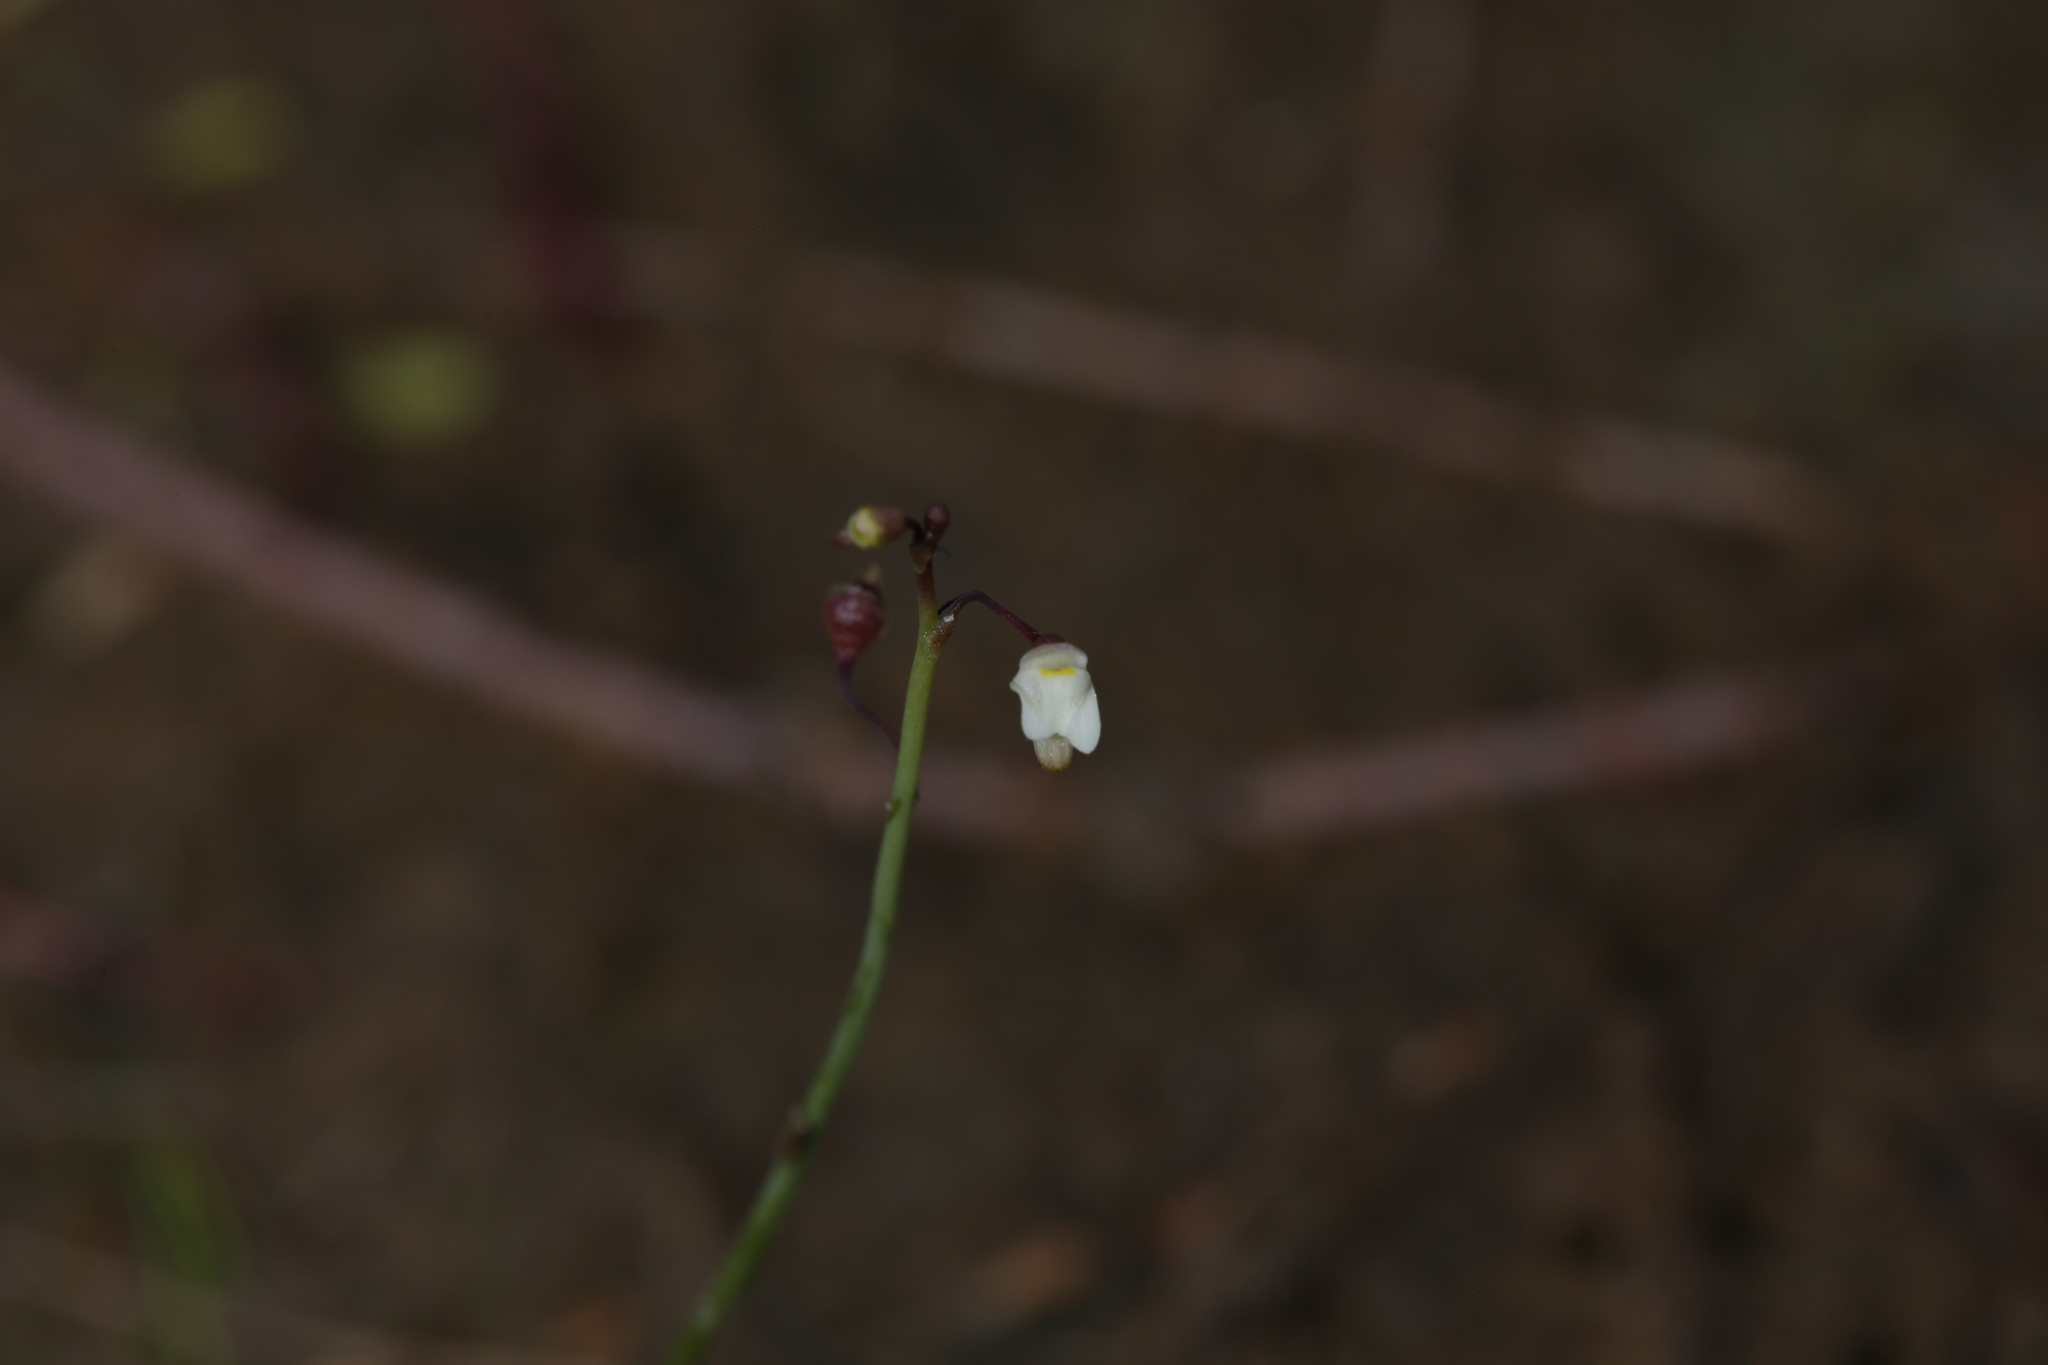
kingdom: Plantae
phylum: Tracheophyta
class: Magnoliopsida
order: Lamiales
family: Lentibulariaceae
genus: Utricularia
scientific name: Utricularia limosa
